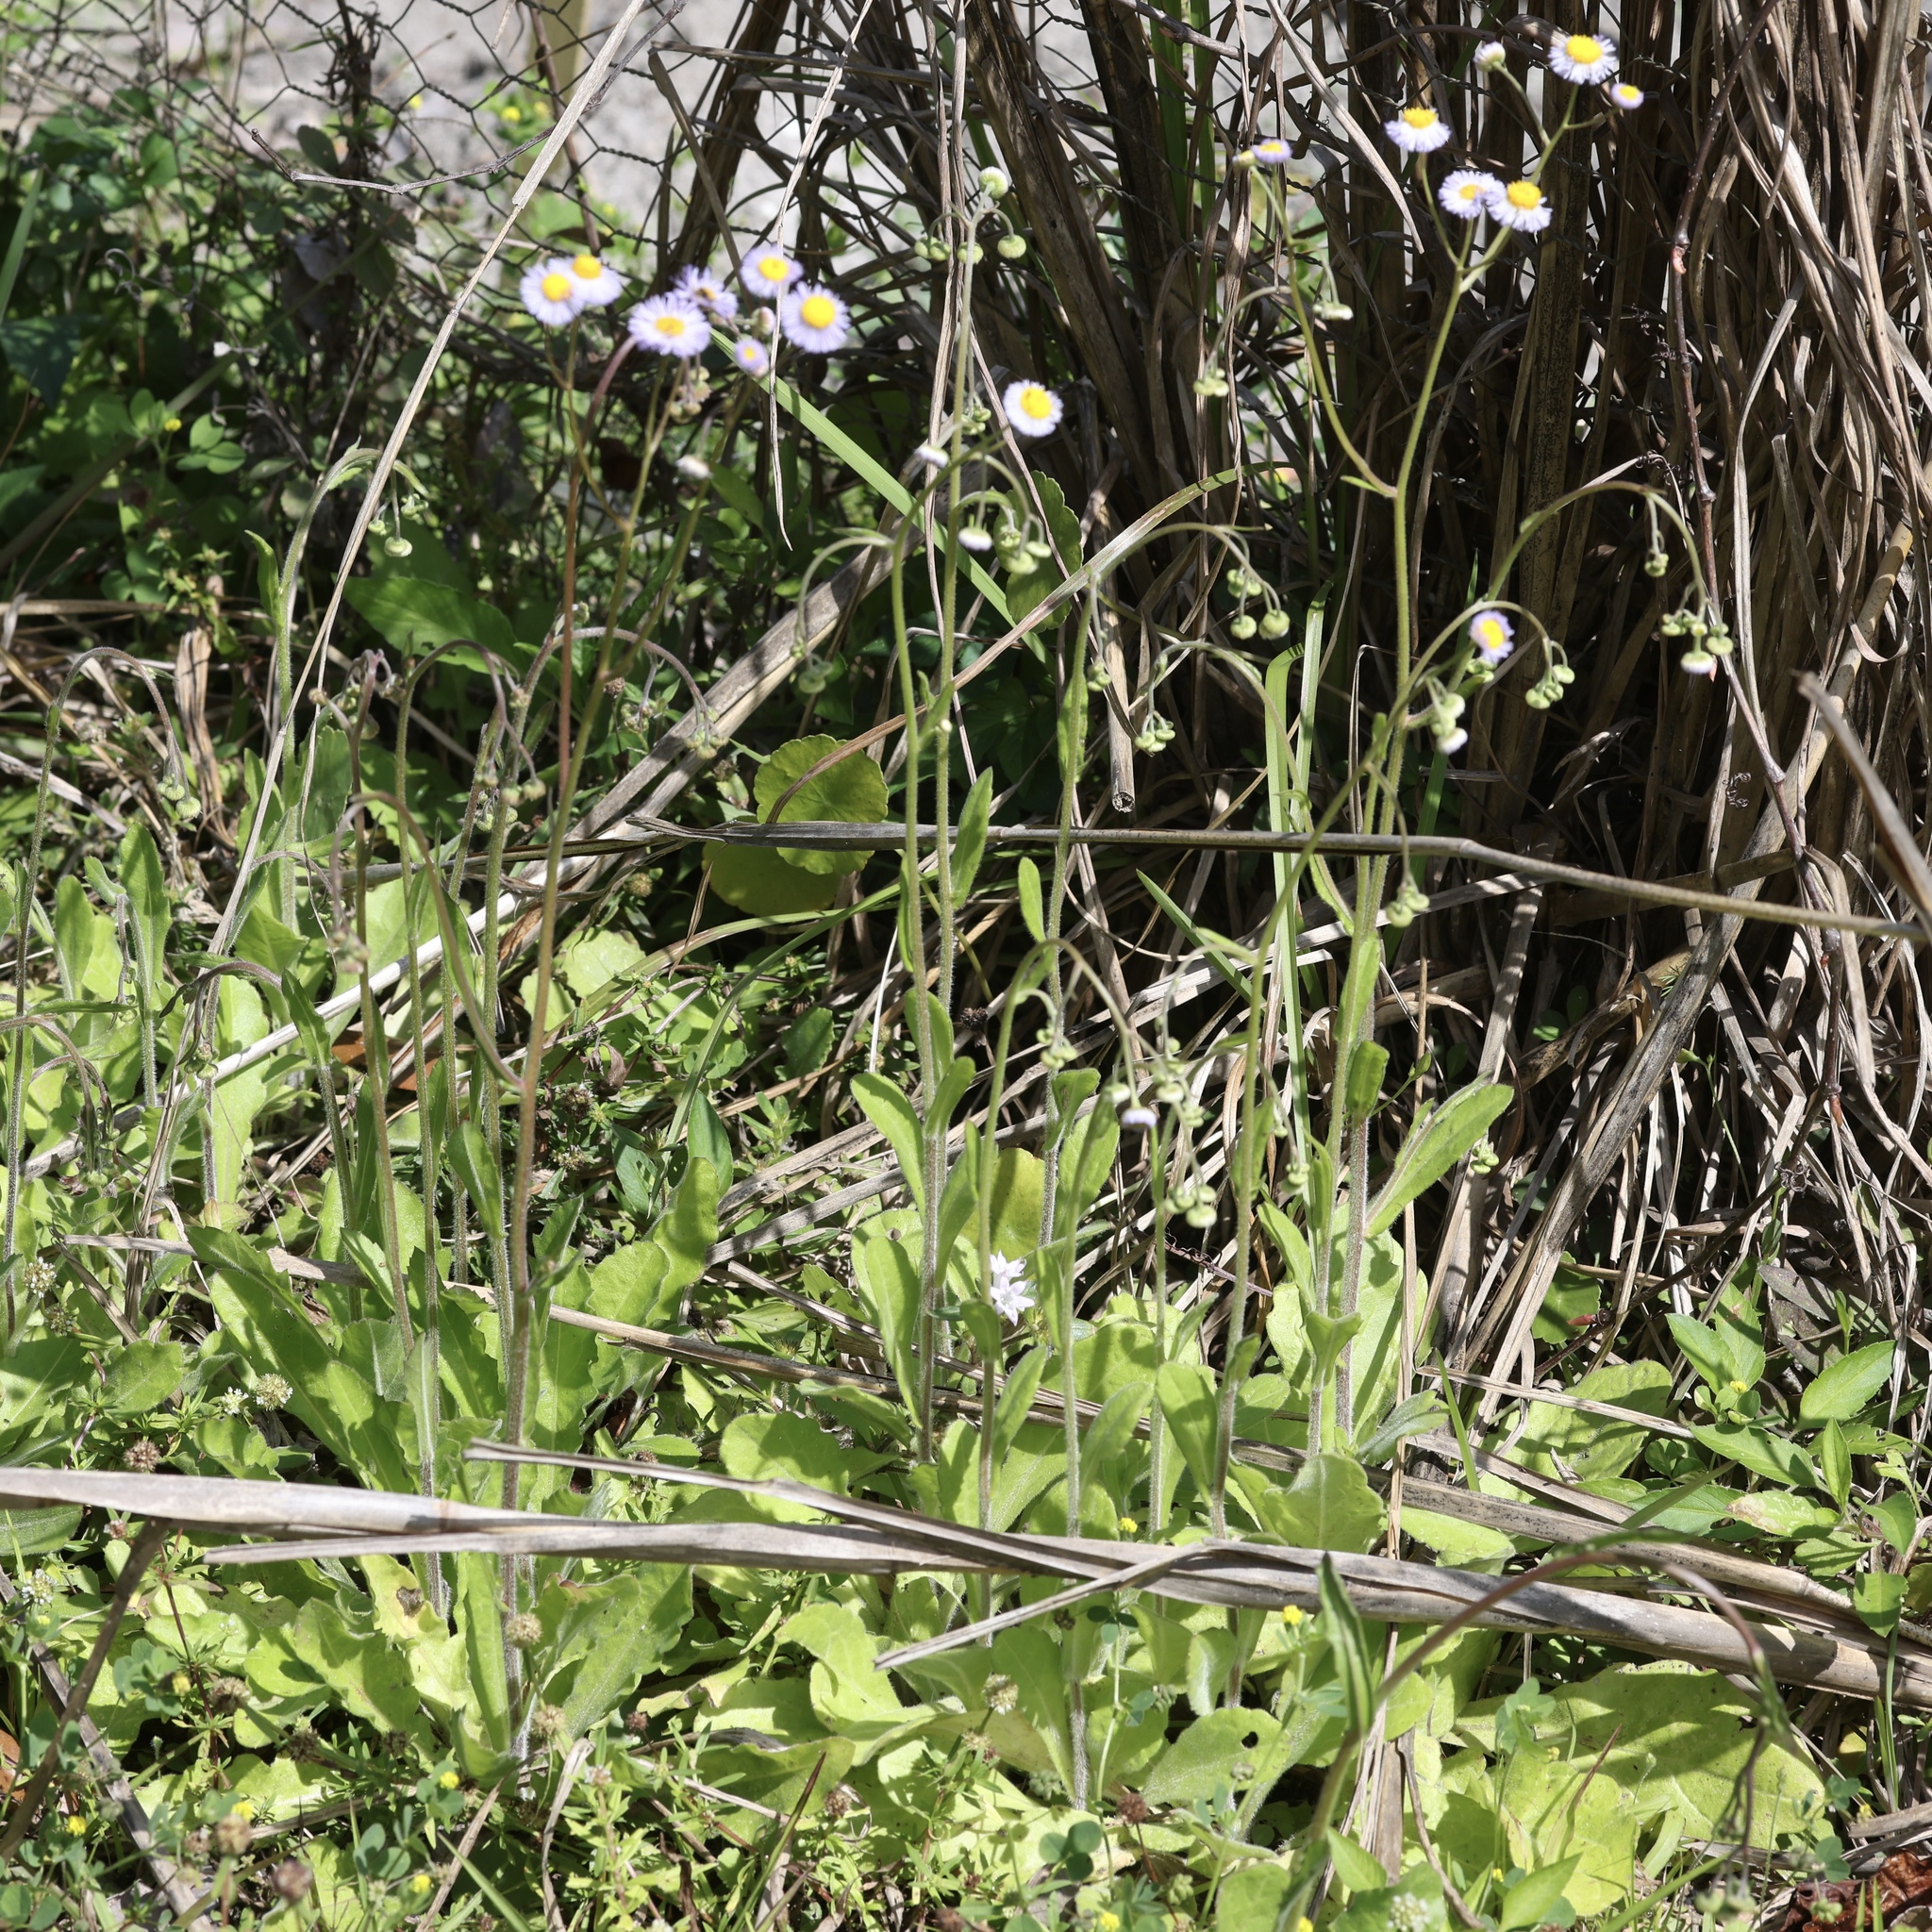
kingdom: Plantae
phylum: Tracheophyta
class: Magnoliopsida
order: Asterales
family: Asteraceae
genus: Erigeron
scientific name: Erigeron quercifolius
